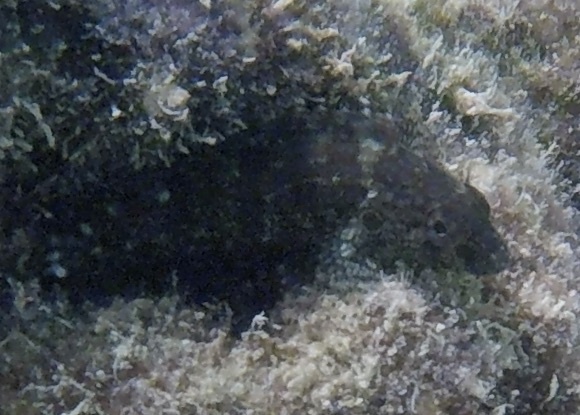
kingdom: Animalia
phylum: Chordata
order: Perciformes
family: Labrisomidae
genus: Labrisomus
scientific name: Labrisomus nuchipinnis
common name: Hairy blenny
